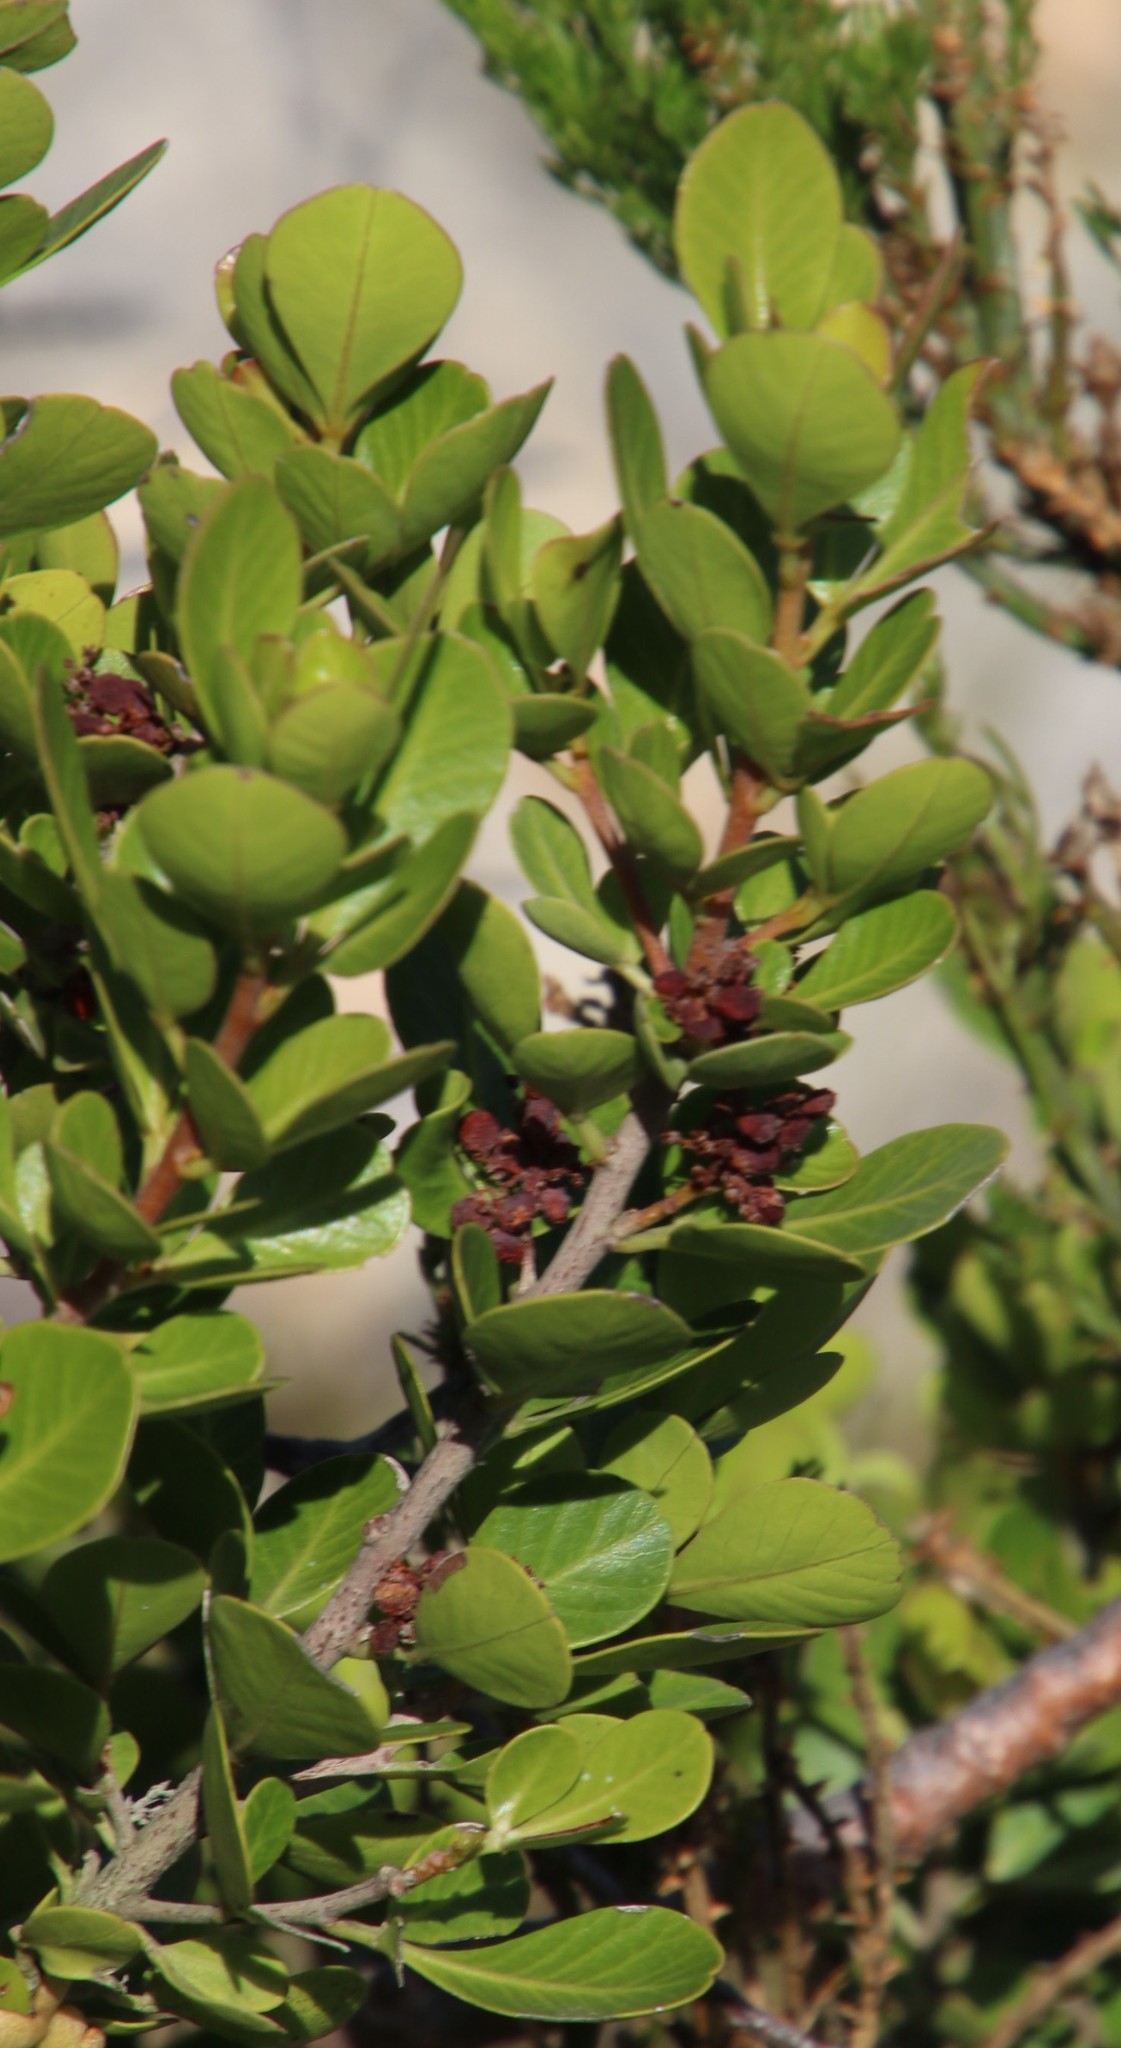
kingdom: Plantae
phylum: Tracheophyta
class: Magnoliopsida
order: Sapindales
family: Anacardiaceae
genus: Searsia
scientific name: Searsia lucida
